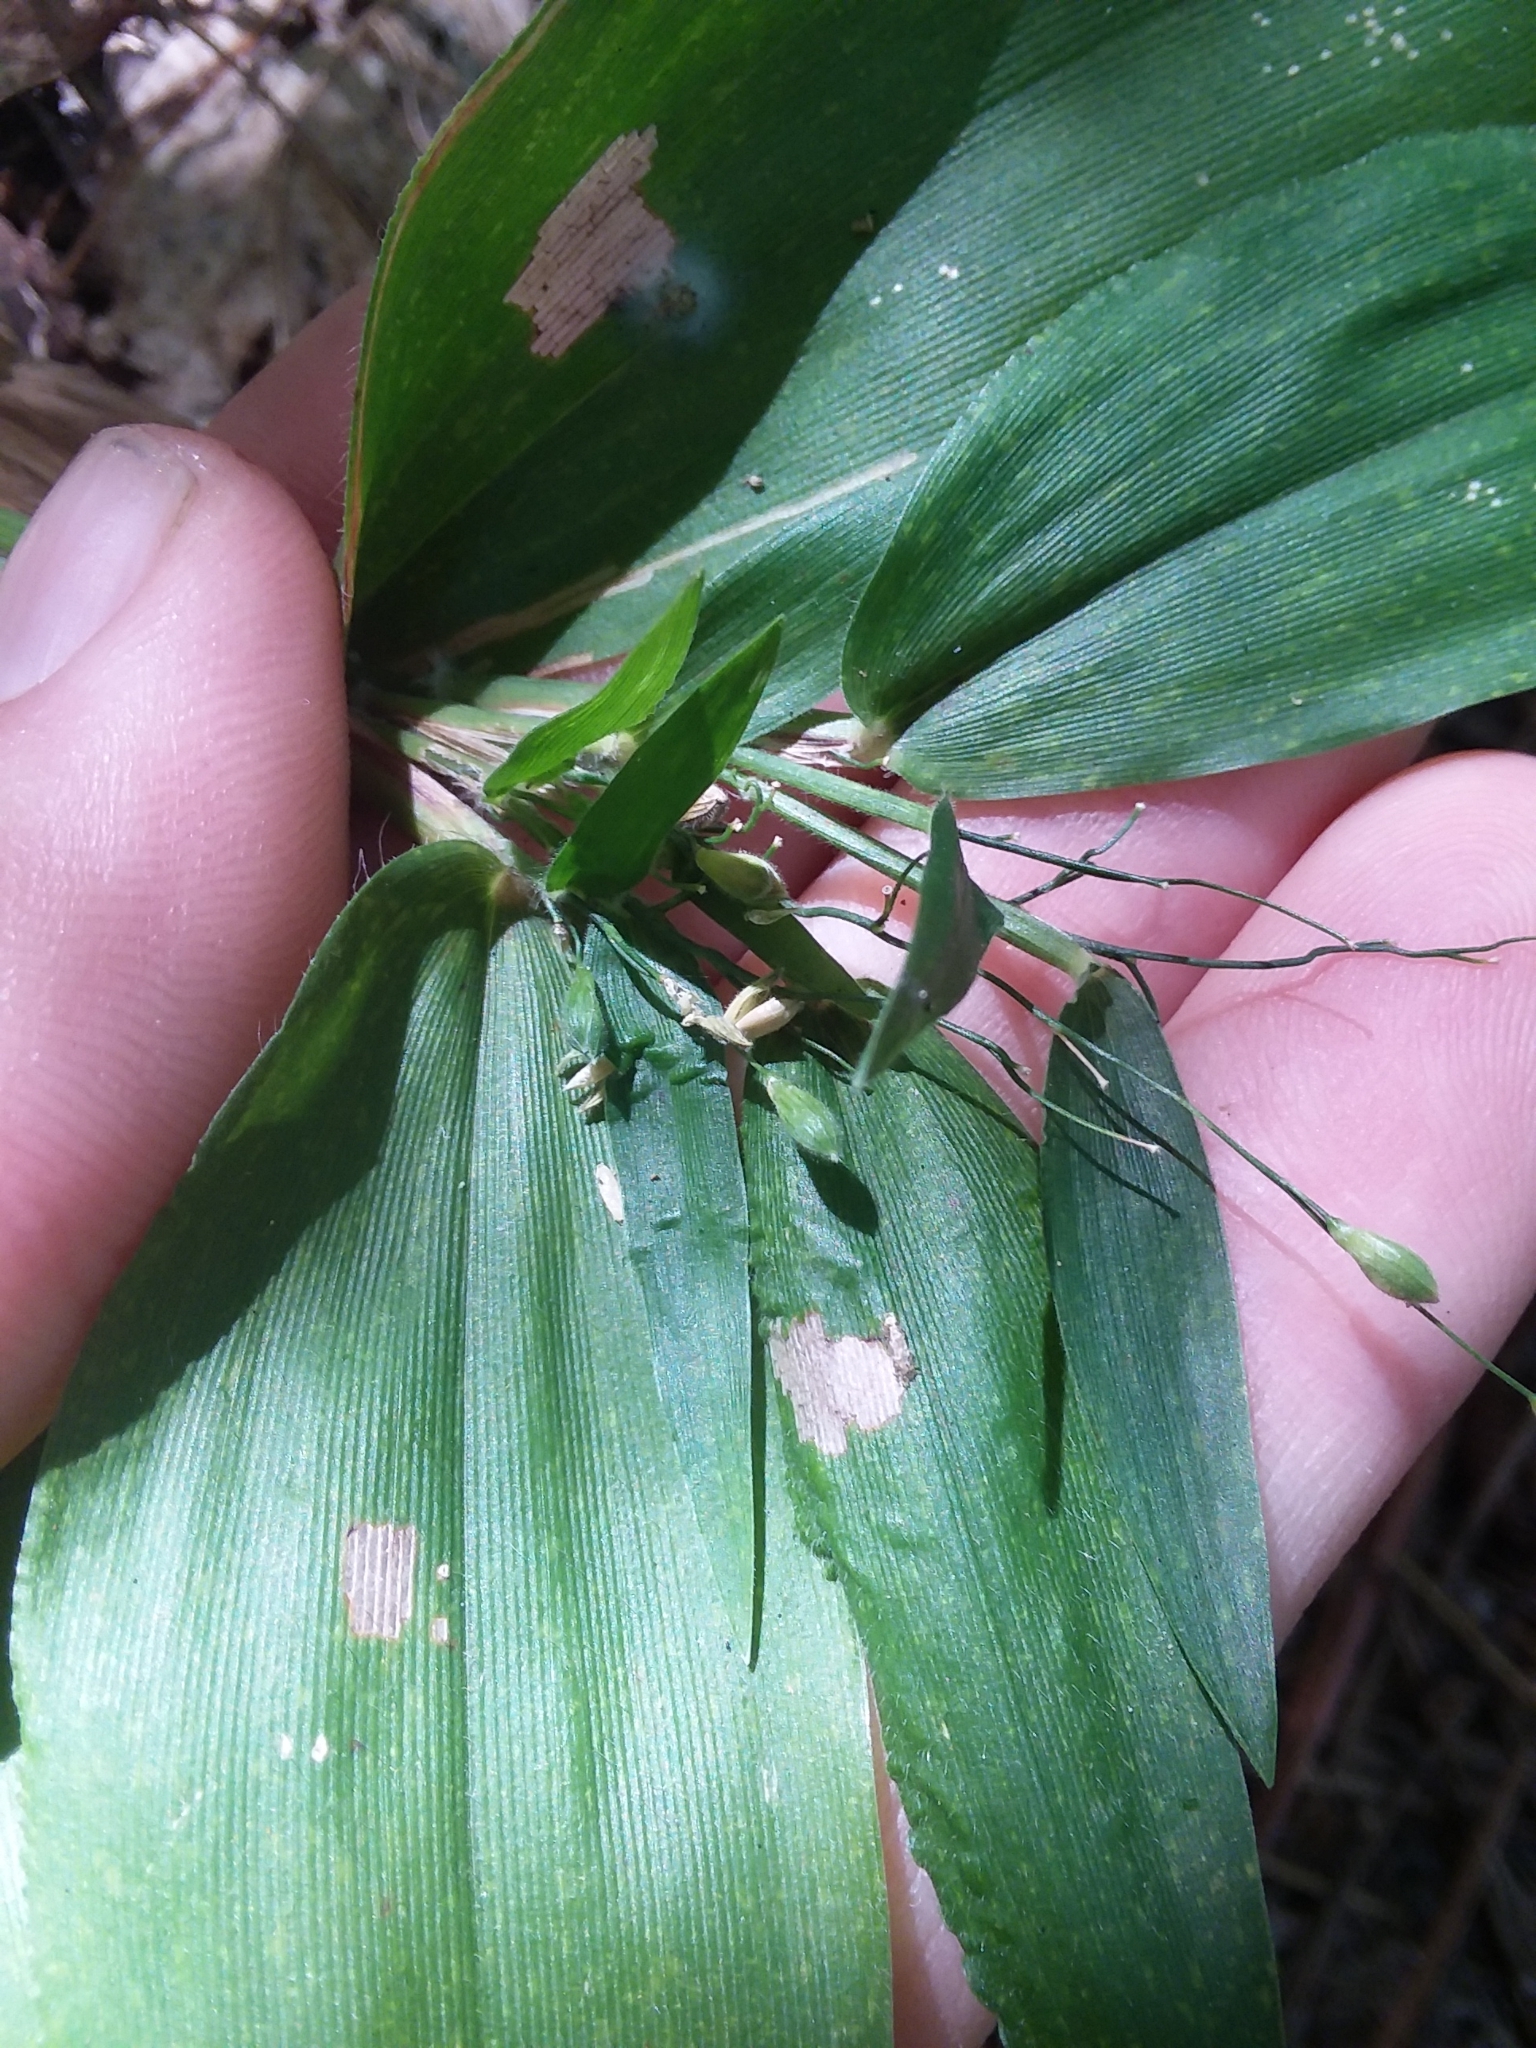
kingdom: Plantae
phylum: Tracheophyta
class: Liliopsida
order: Poales
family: Poaceae
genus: Dichanthelium
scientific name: Dichanthelium boscii
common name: Bosc's panic grass
